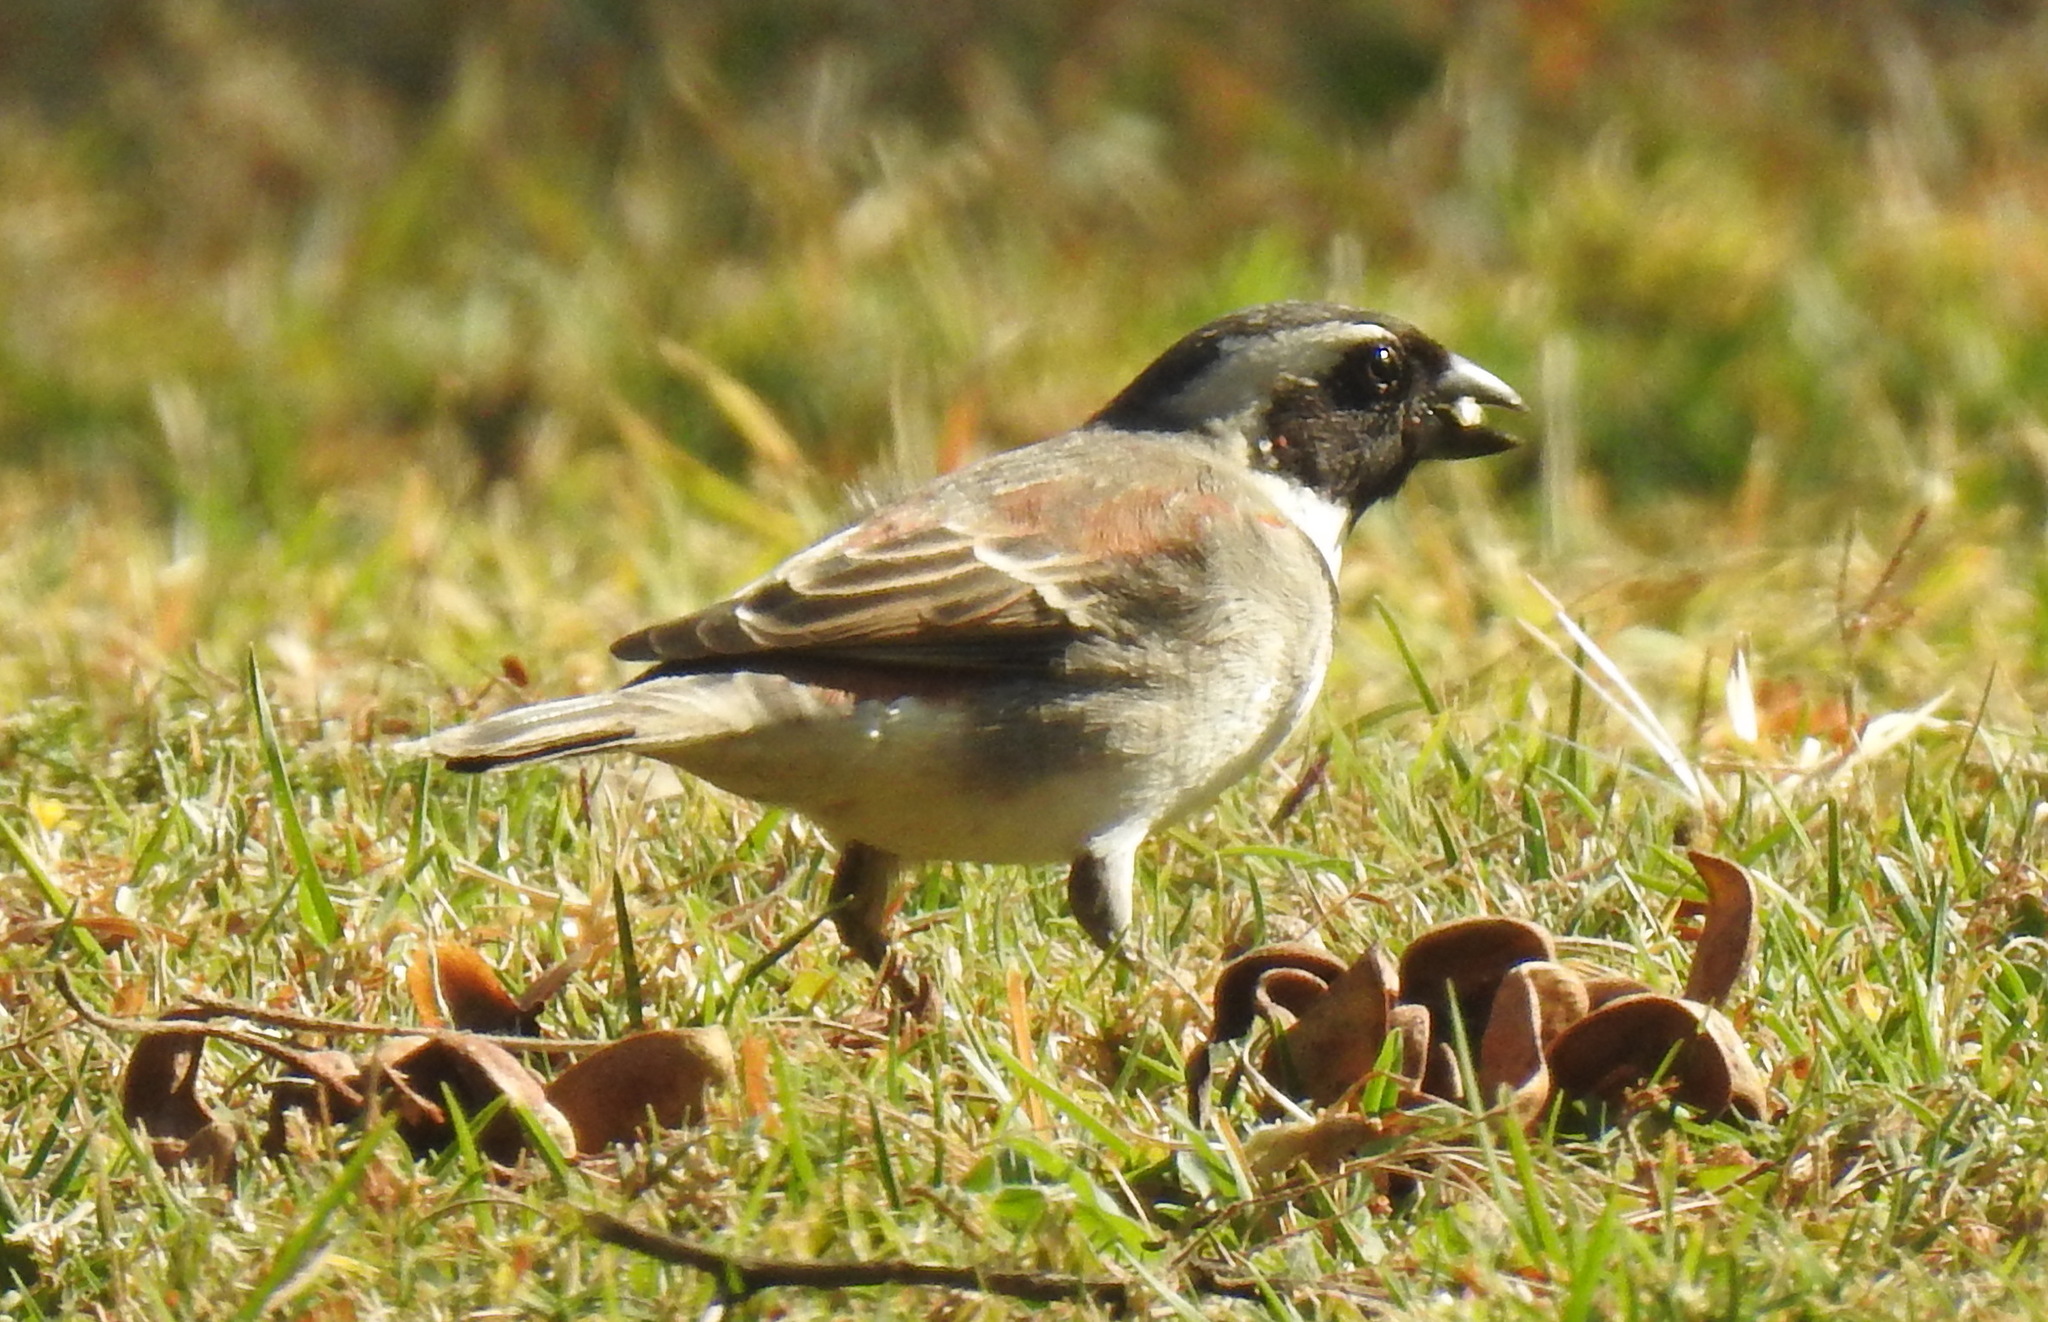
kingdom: Animalia
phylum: Chordata
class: Aves
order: Passeriformes
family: Passeridae
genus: Passer
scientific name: Passer melanurus
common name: Cape sparrow
